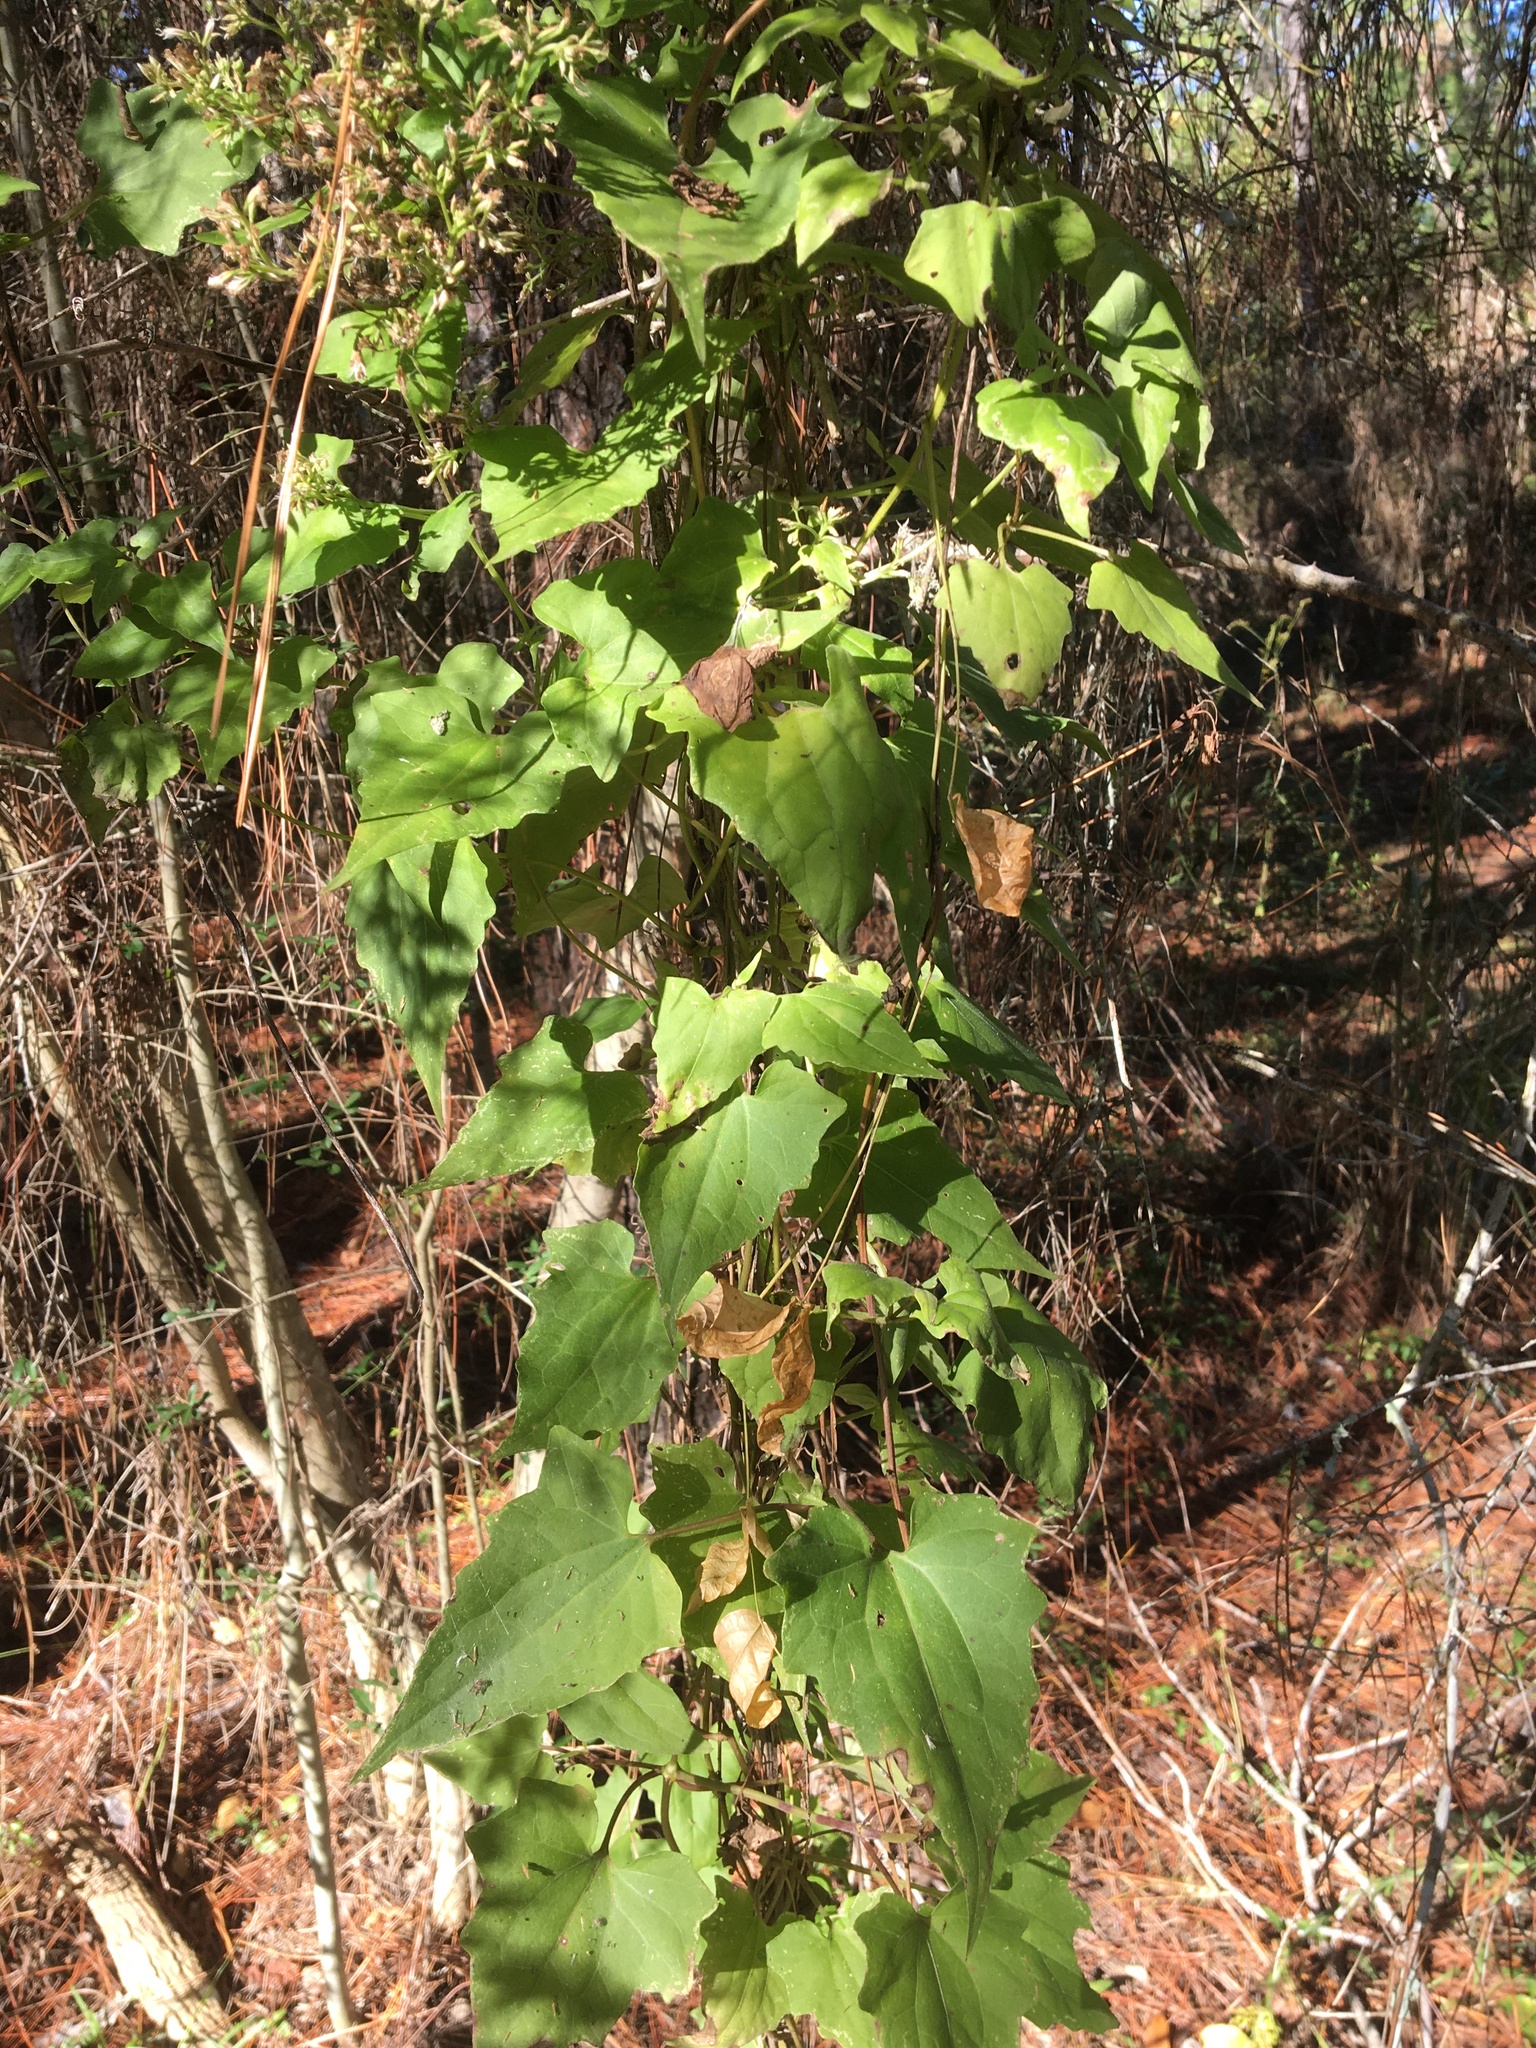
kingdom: Plantae
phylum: Tracheophyta
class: Magnoliopsida
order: Asterales
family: Asteraceae
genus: Mikania
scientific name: Mikania scandens
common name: Climbing hempvine
